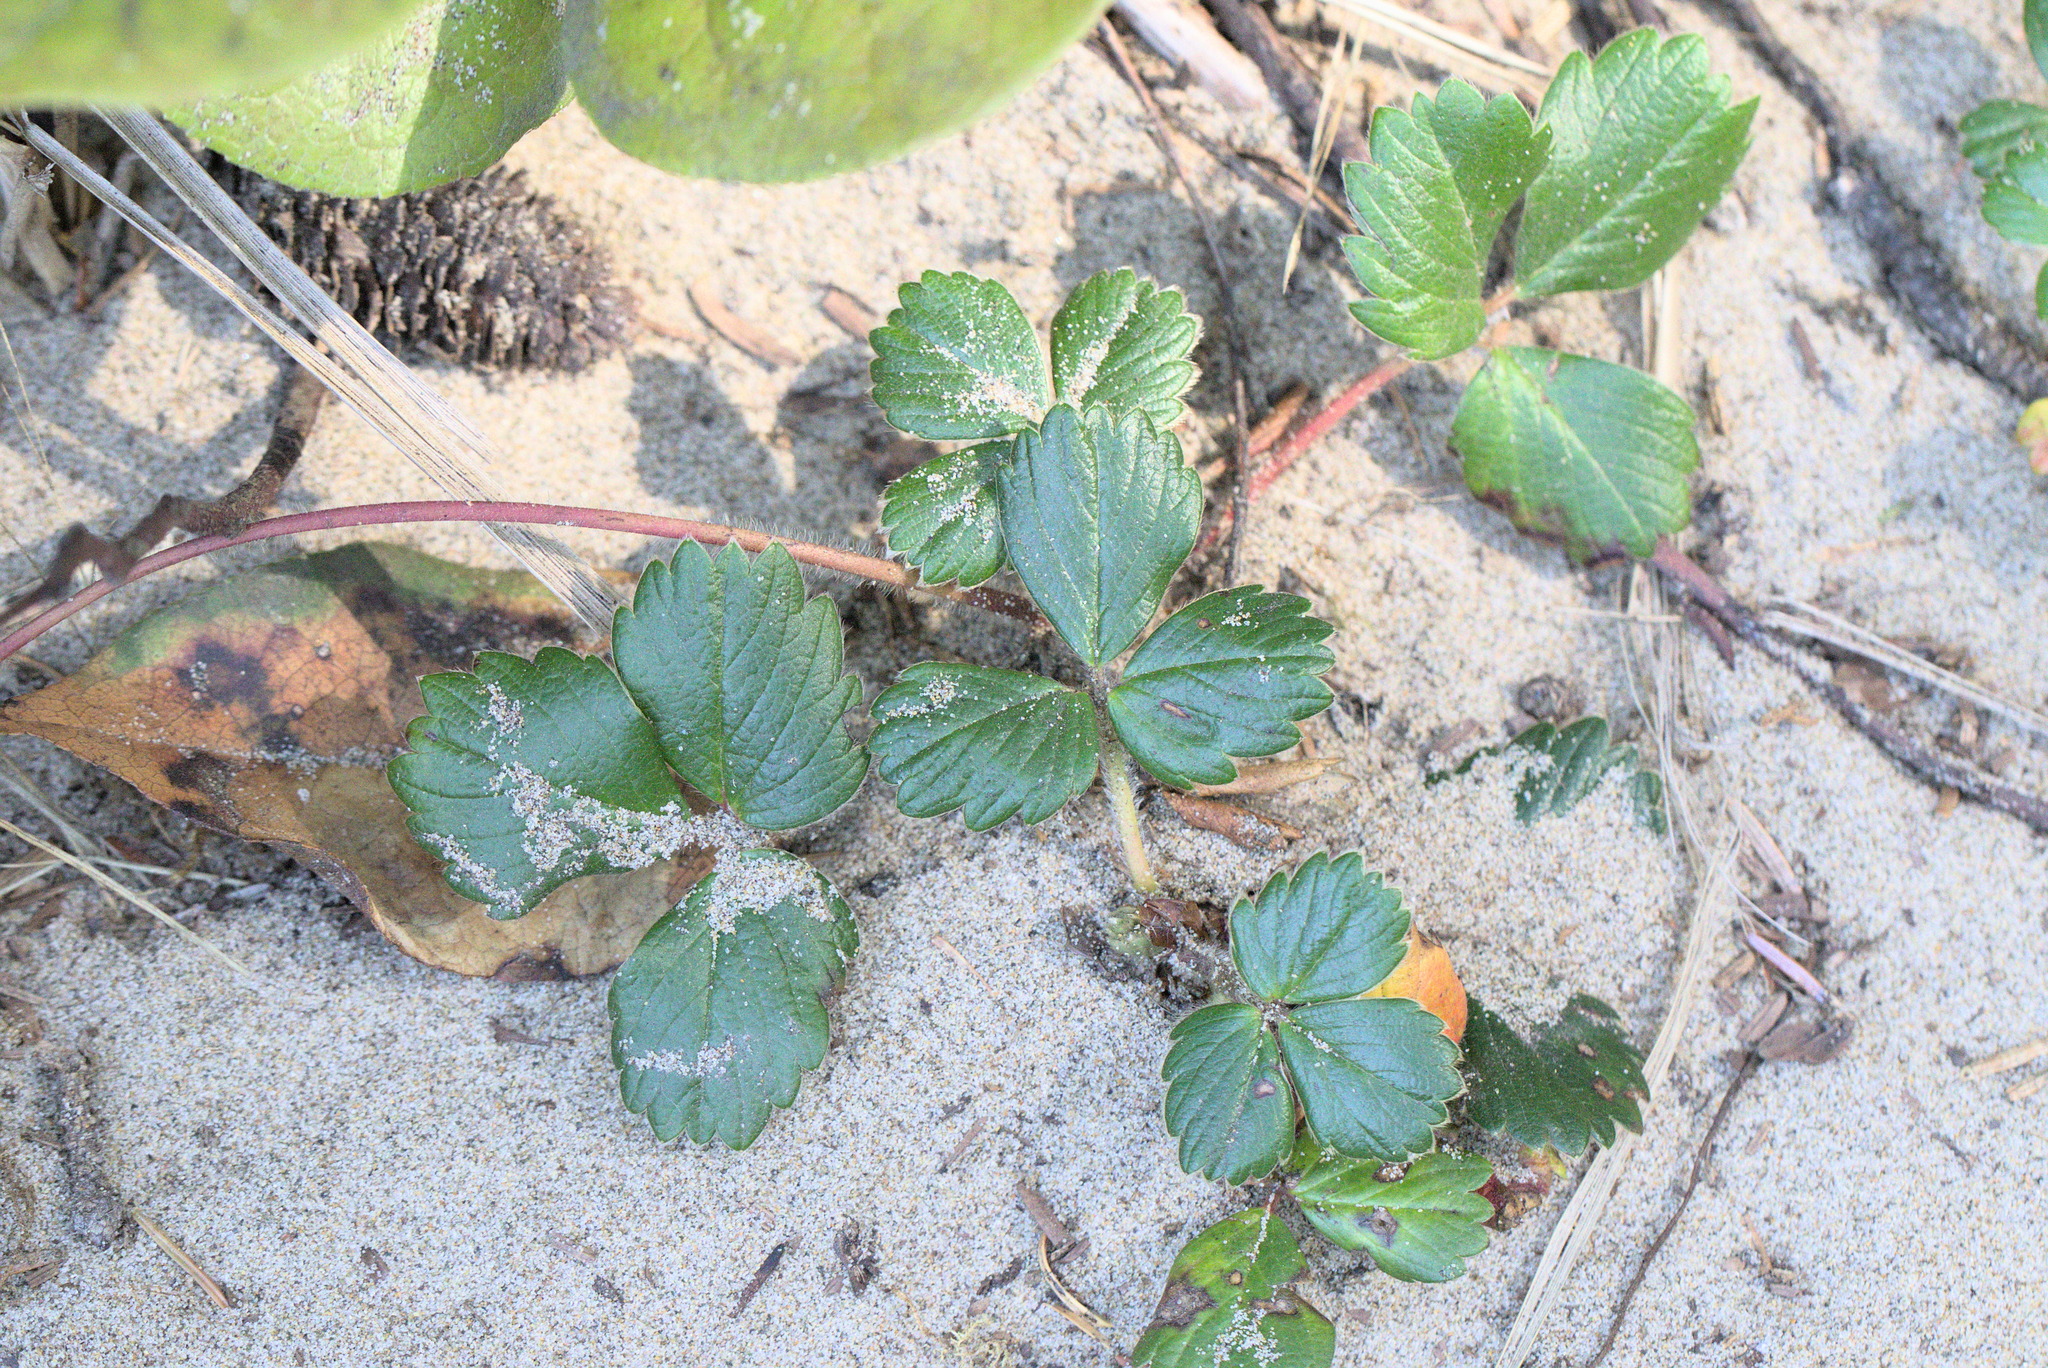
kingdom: Plantae
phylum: Tracheophyta
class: Magnoliopsida
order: Rosales
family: Rosaceae
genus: Fragaria
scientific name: Fragaria chiloensis
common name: Beach strawberry
